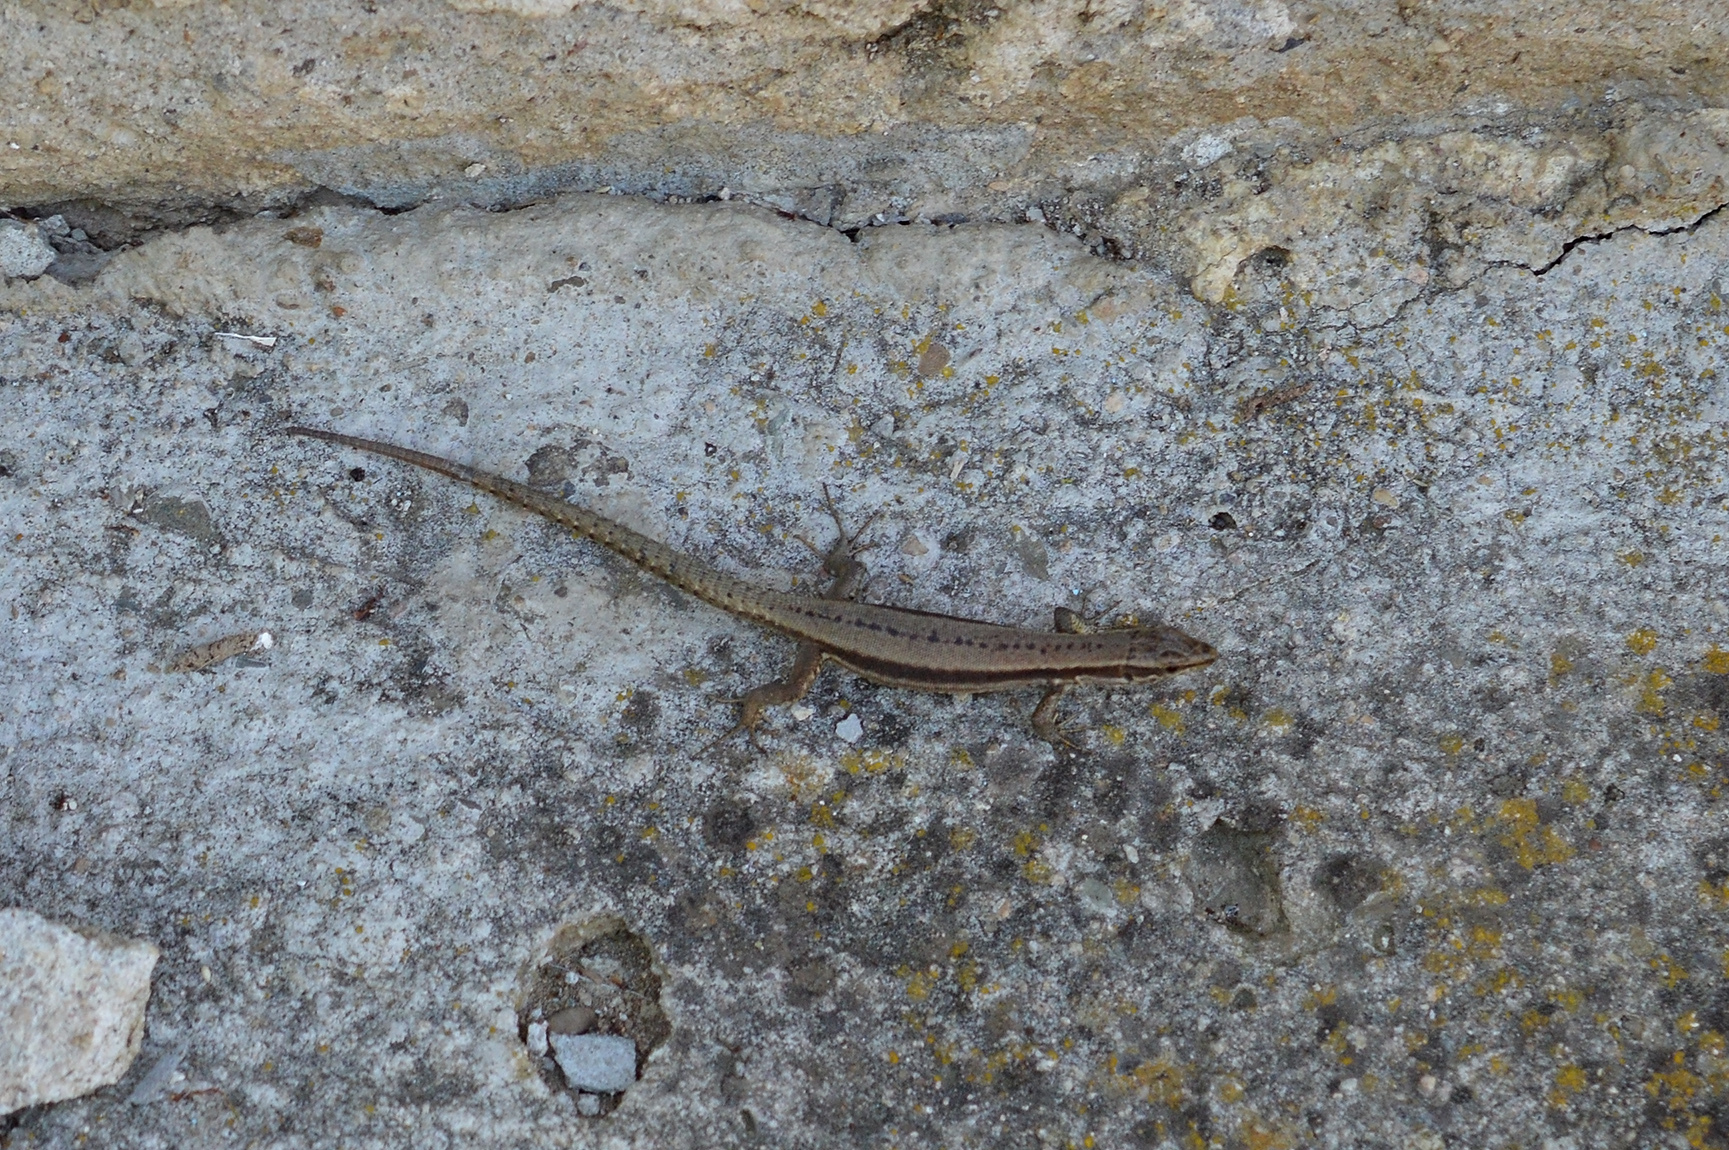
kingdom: Animalia
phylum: Chordata
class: Squamata
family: Lacertidae
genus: Podarcis
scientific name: Podarcis muralis
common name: Common wall lizard
